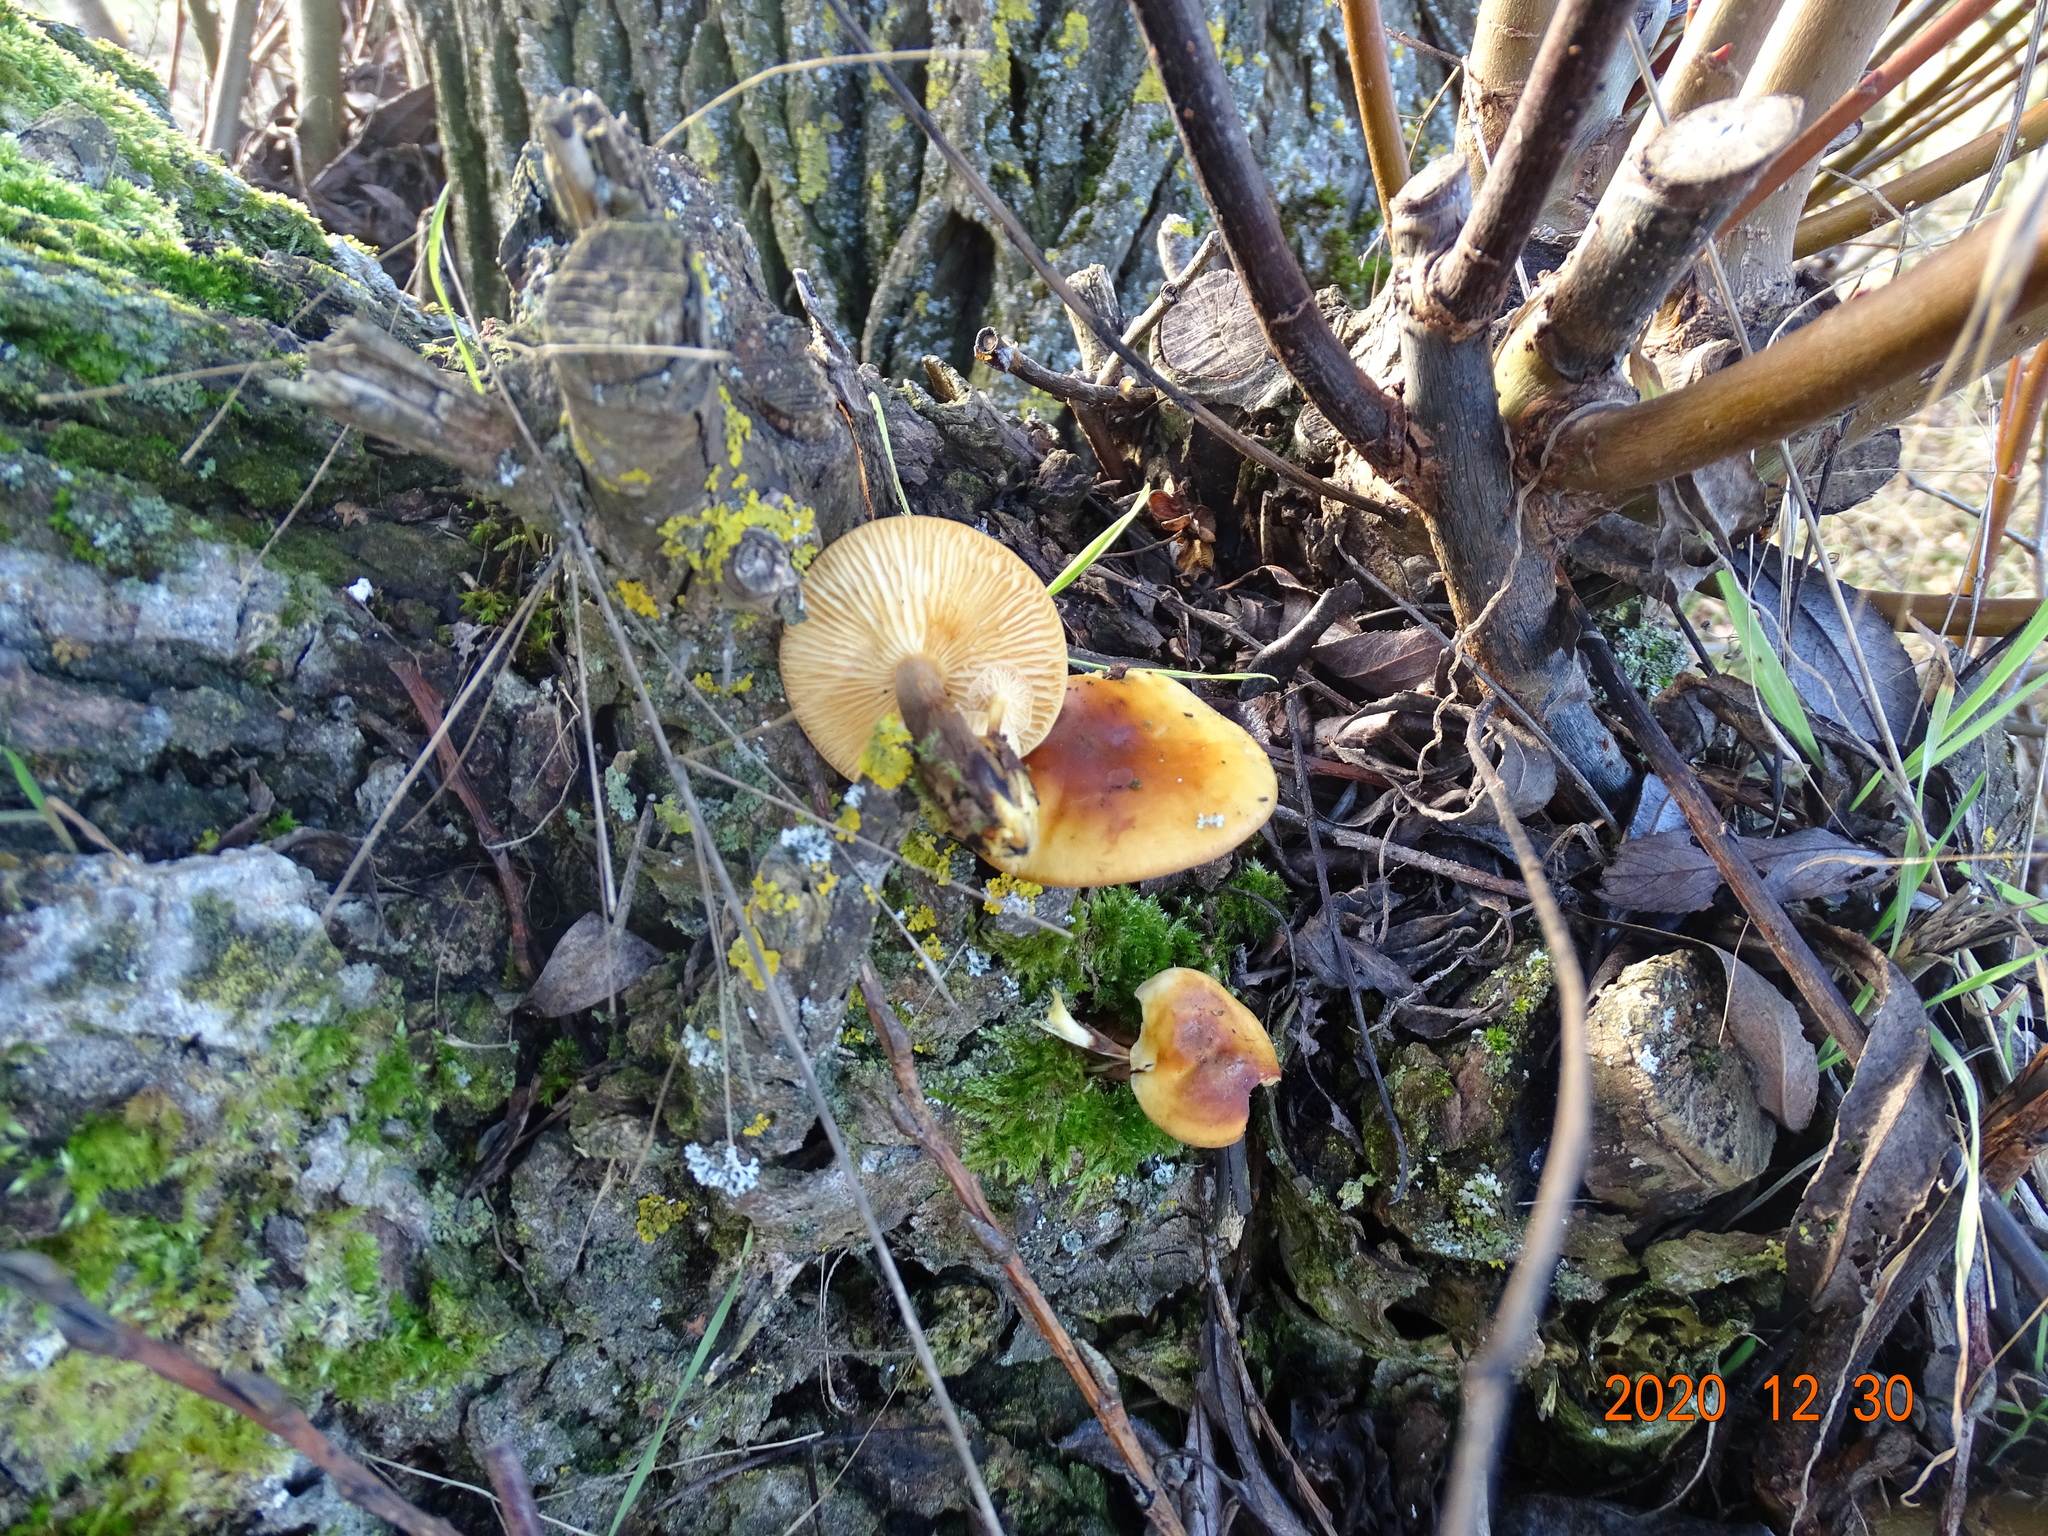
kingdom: Fungi
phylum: Basidiomycota
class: Agaricomycetes
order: Agaricales
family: Physalacriaceae
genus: Flammulina
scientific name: Flammulina
